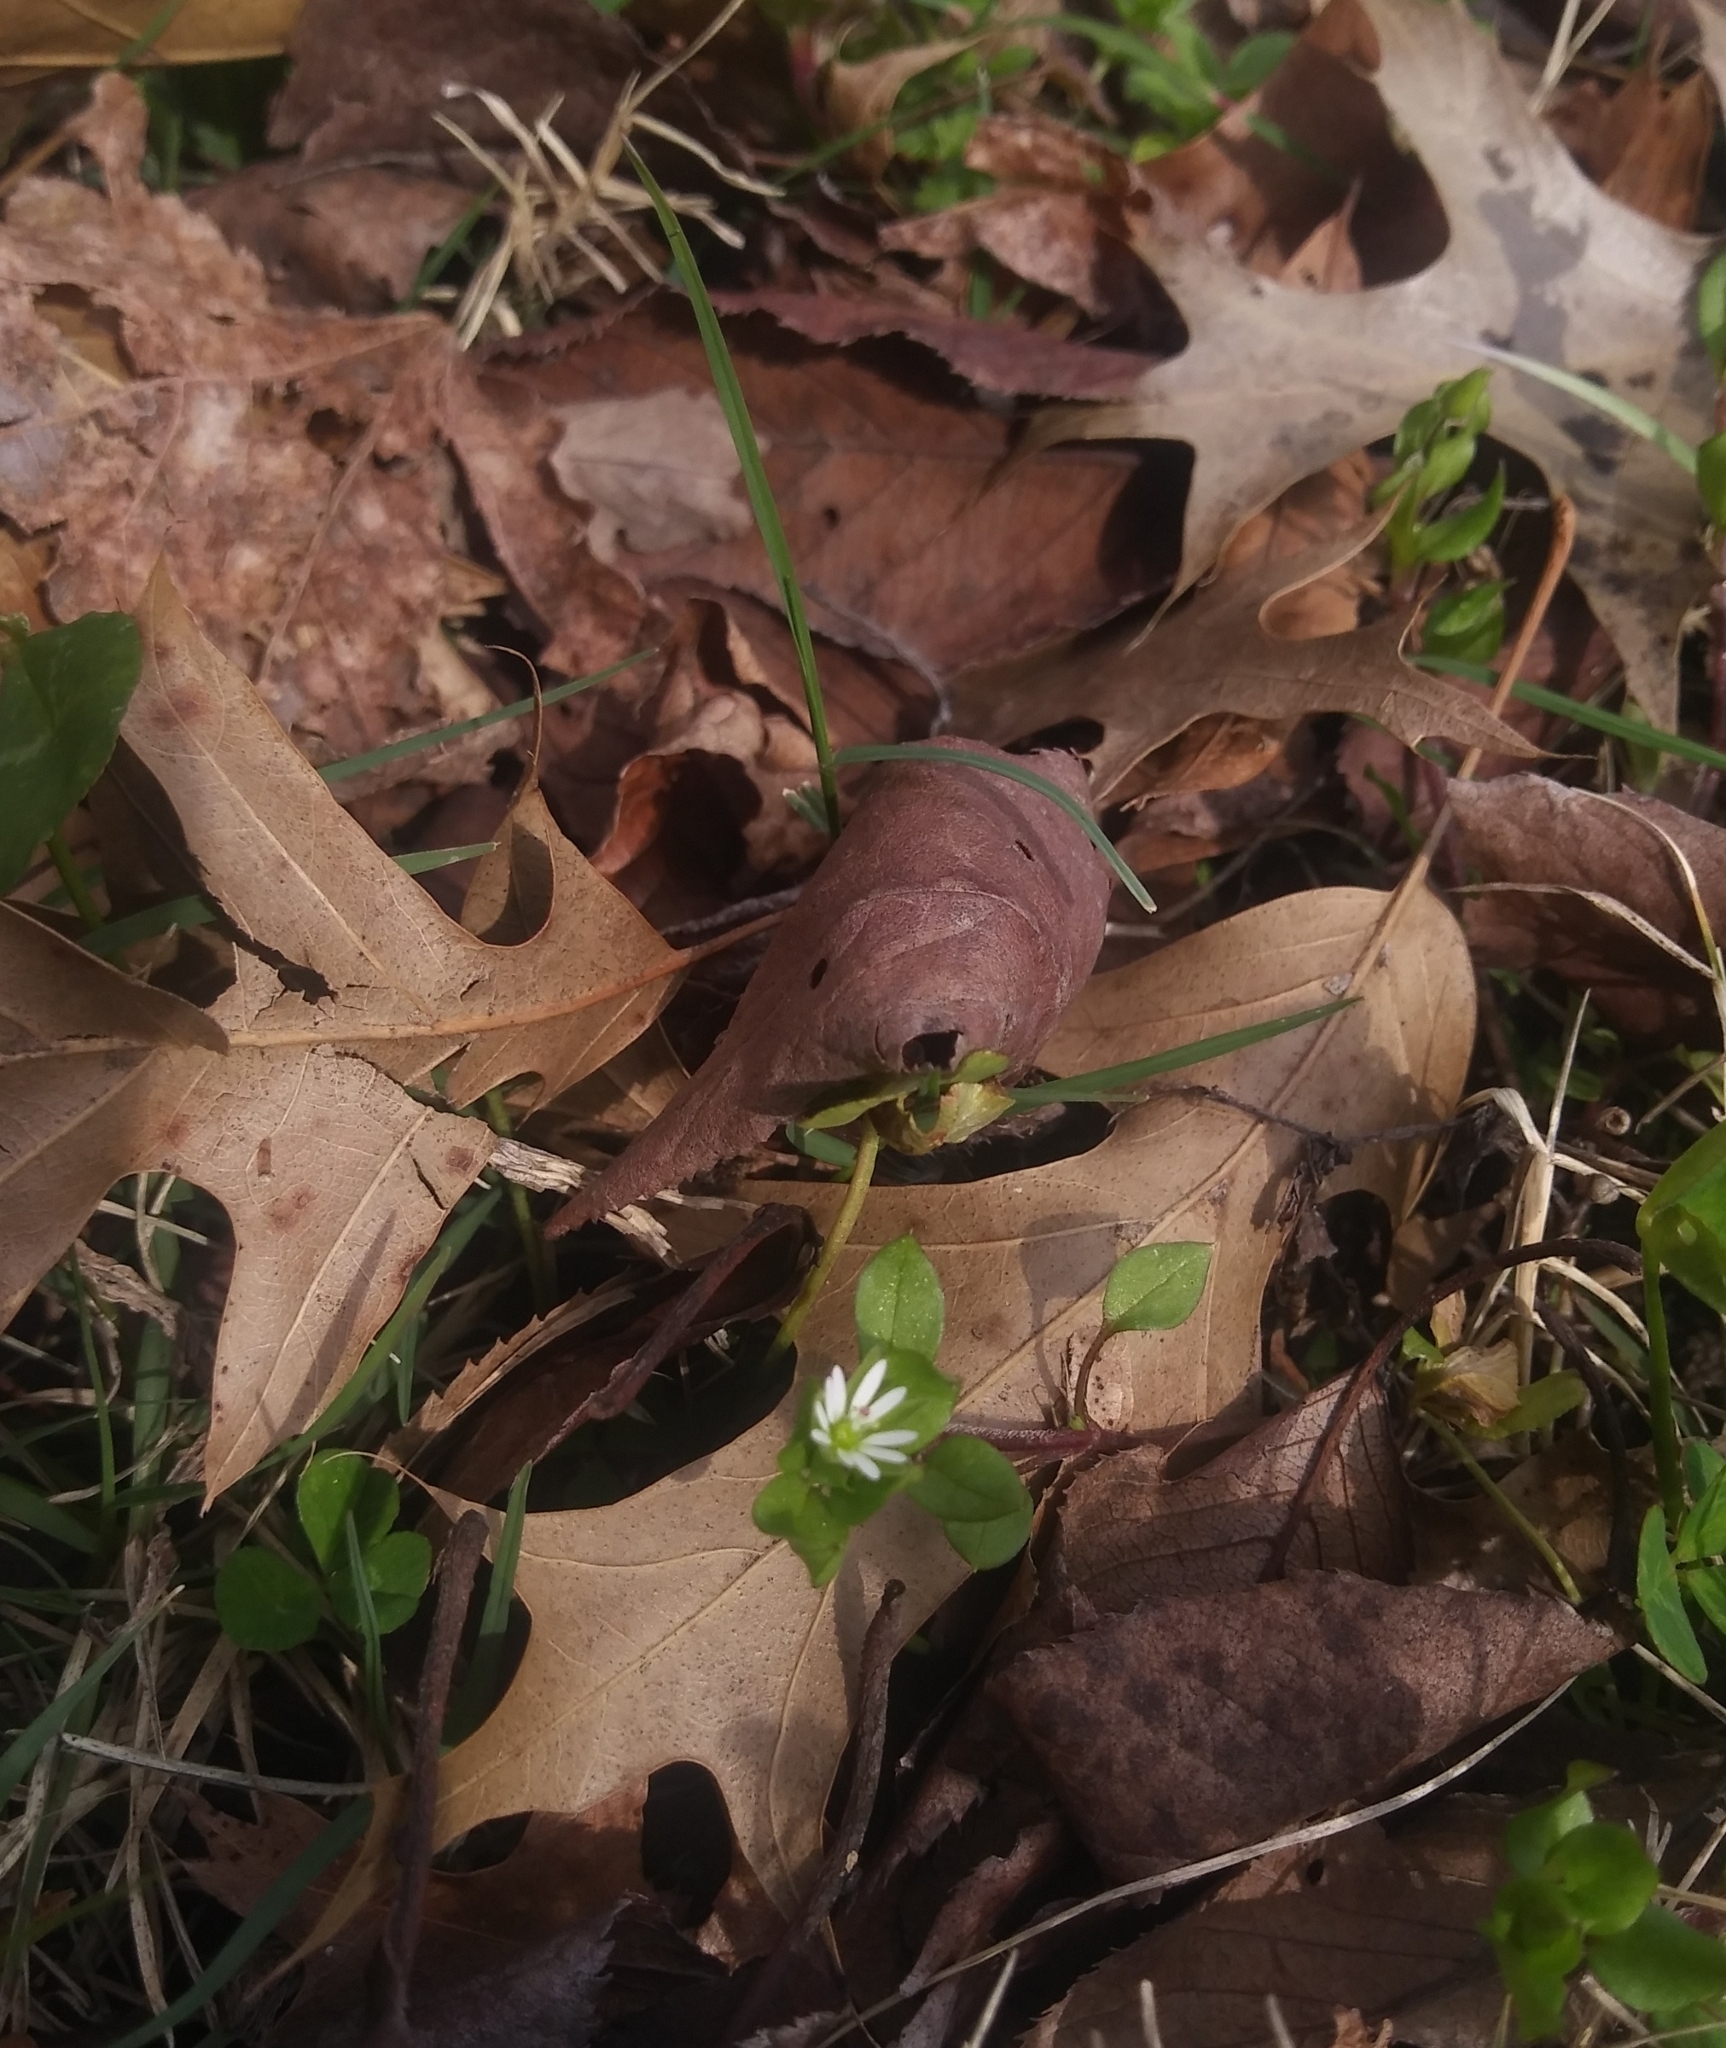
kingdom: Plantae
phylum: Tracheophyta
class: Magnoliopsida
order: Caryophyllales
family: Caryophyllaceae
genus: Stellaria
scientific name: Stellaria media
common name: Common chickweed
